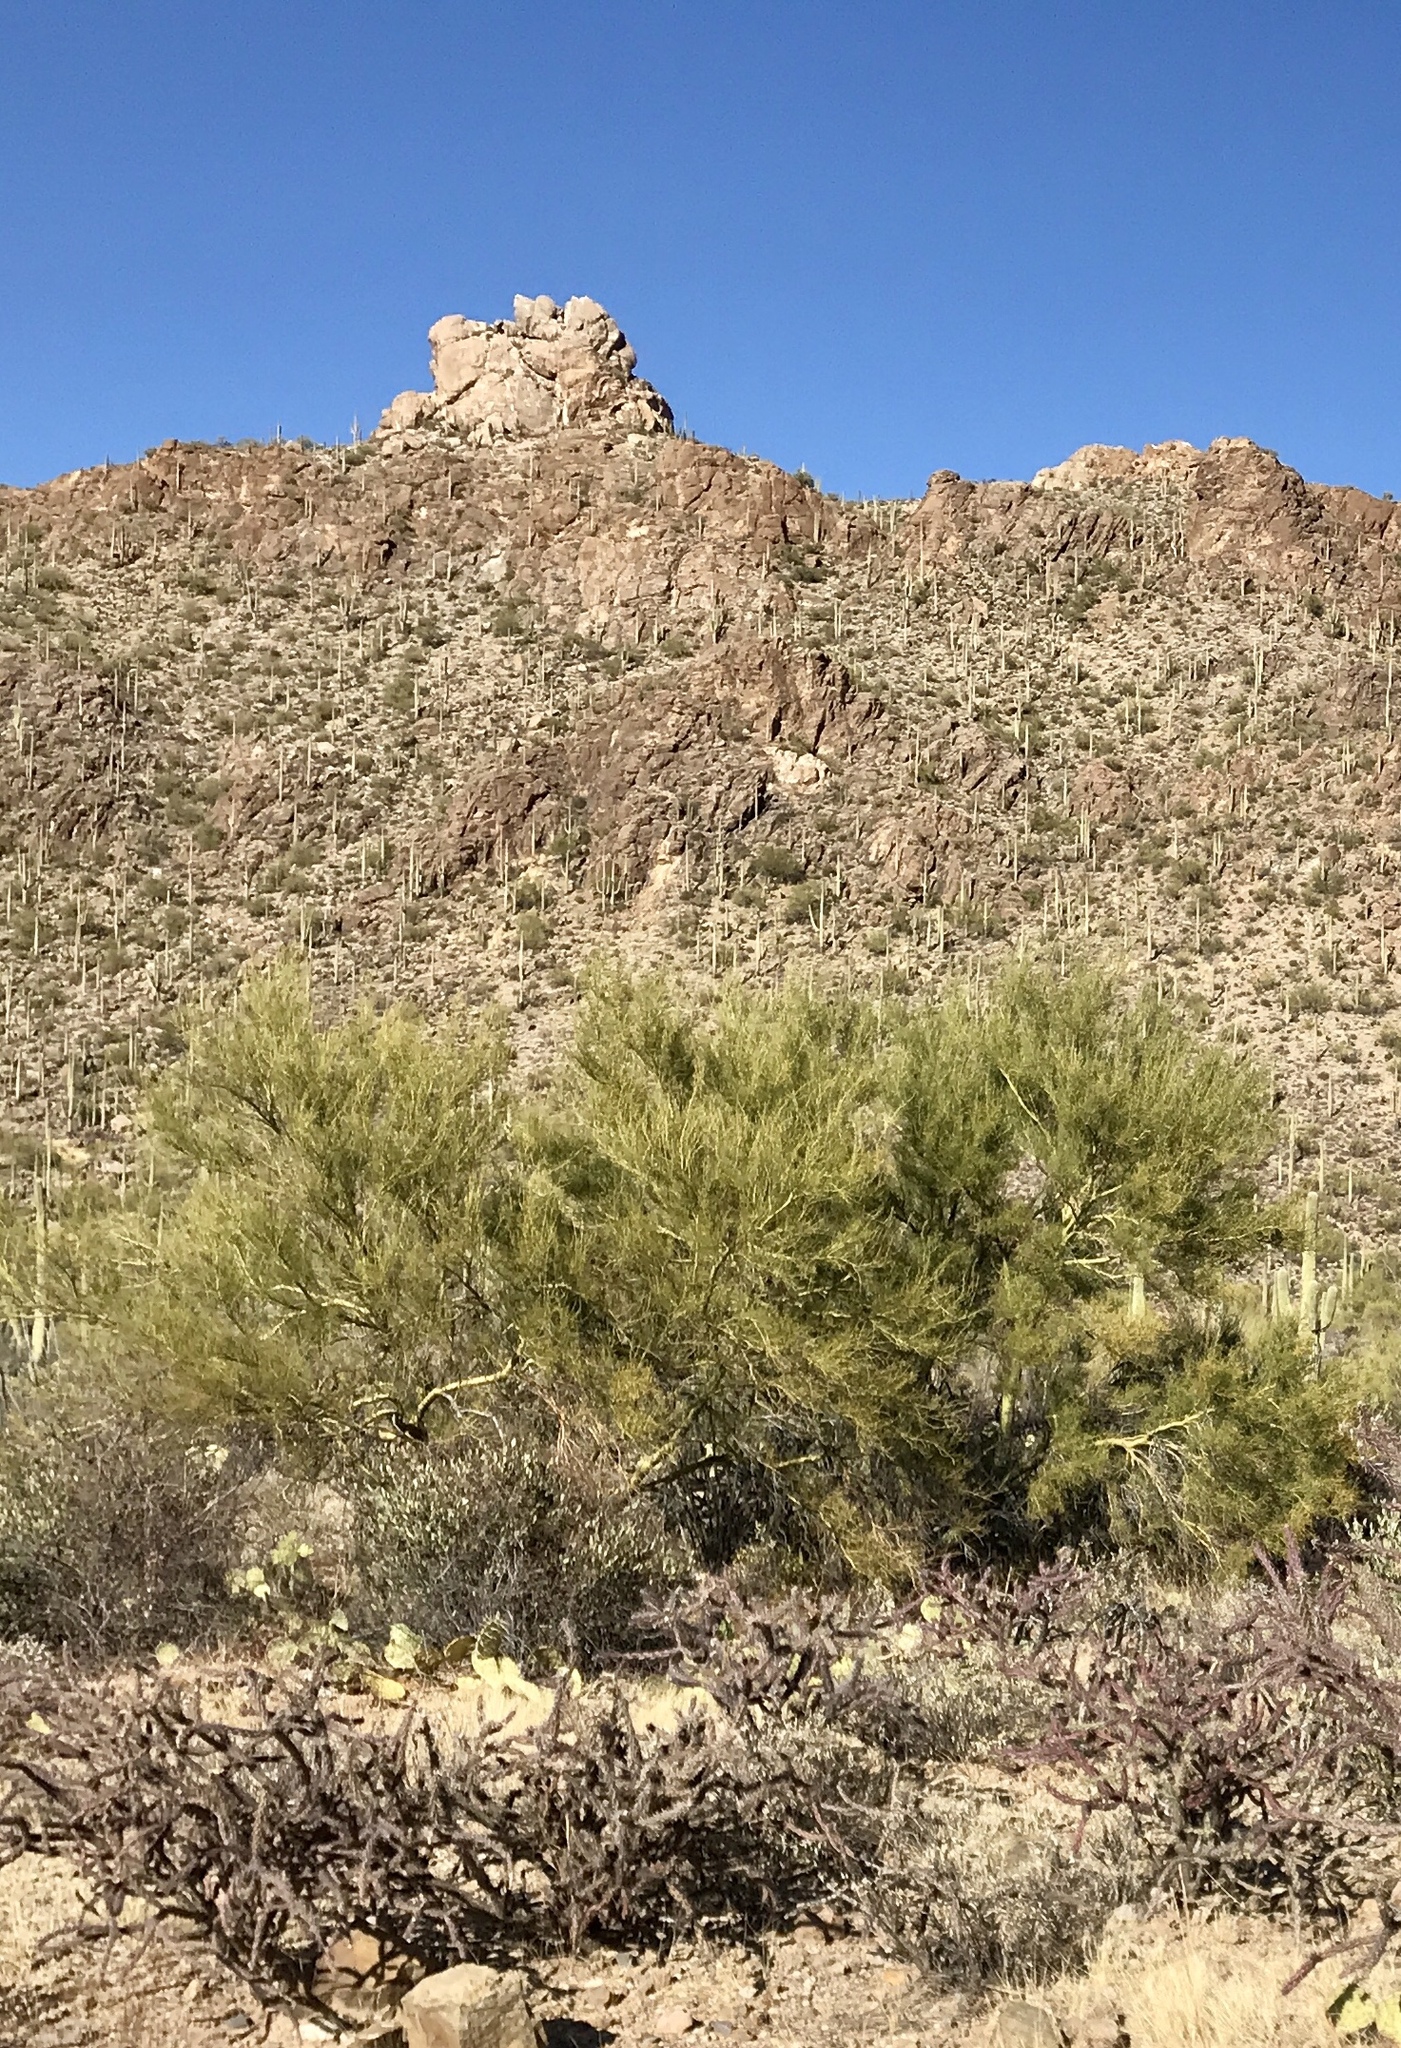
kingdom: Plantae
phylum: Tracheophyta
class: Magnoliopsida
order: Fabales
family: Fabaceae
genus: Parkinsonia
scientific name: Parkinsonia microphylla
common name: Yellow paloverde
